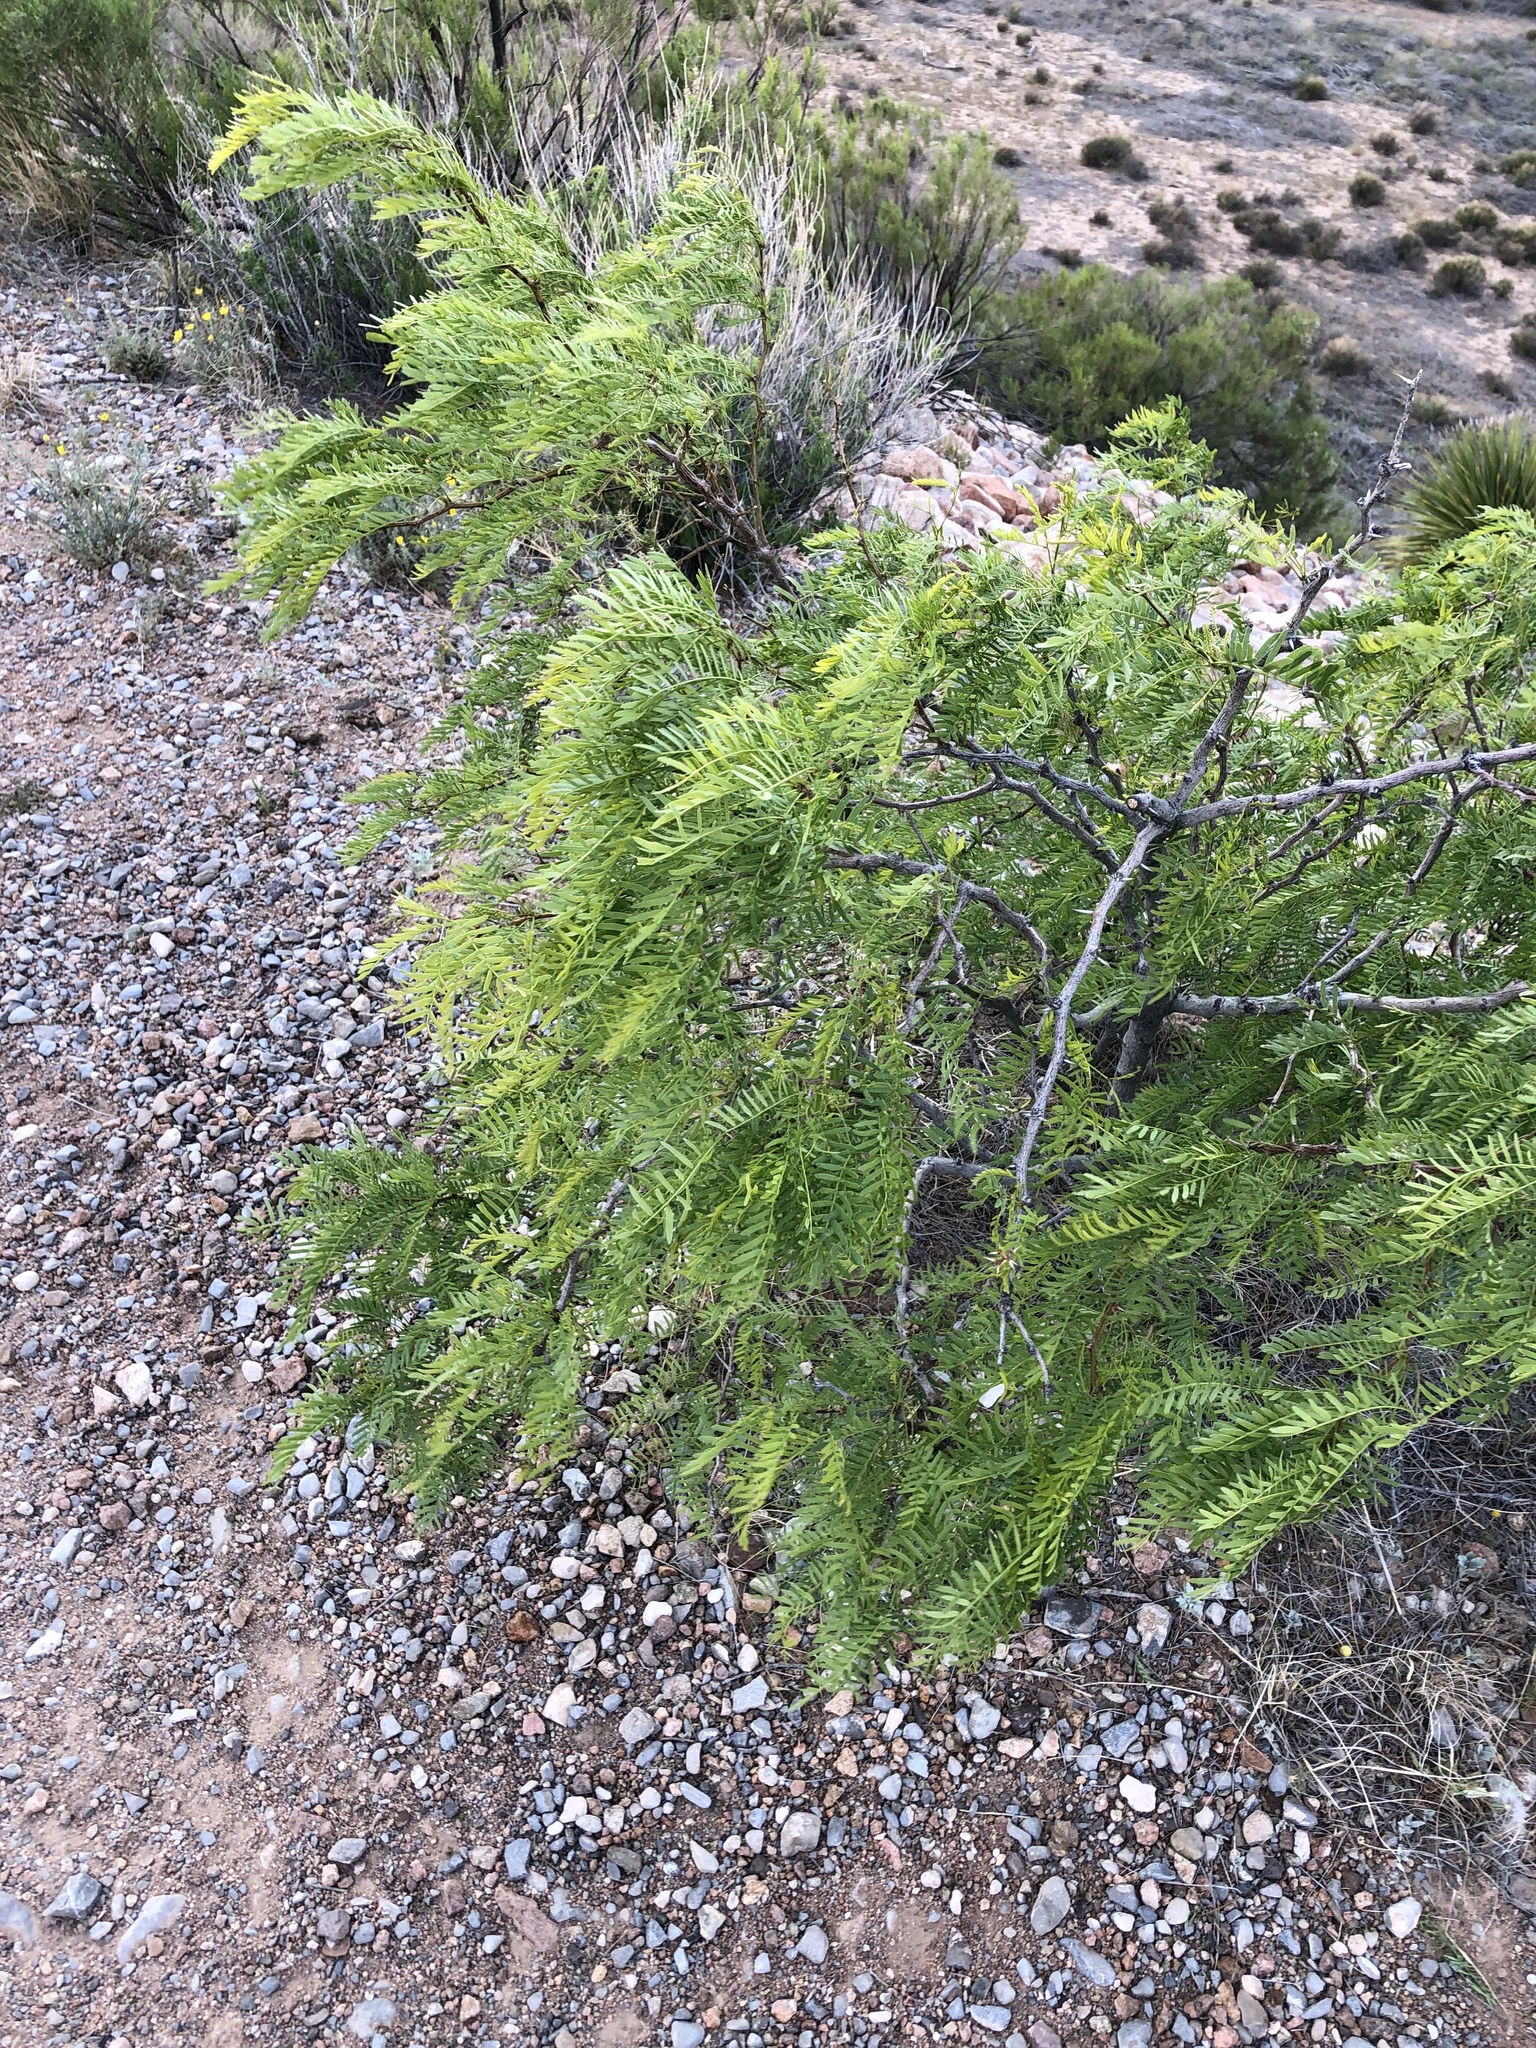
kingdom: Plantae
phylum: Tracheophyta
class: Magnoliopsida
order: Fabales
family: Fabaceae
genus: Prosopis
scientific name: Prosopis glandulosa
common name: Honey mesquite
